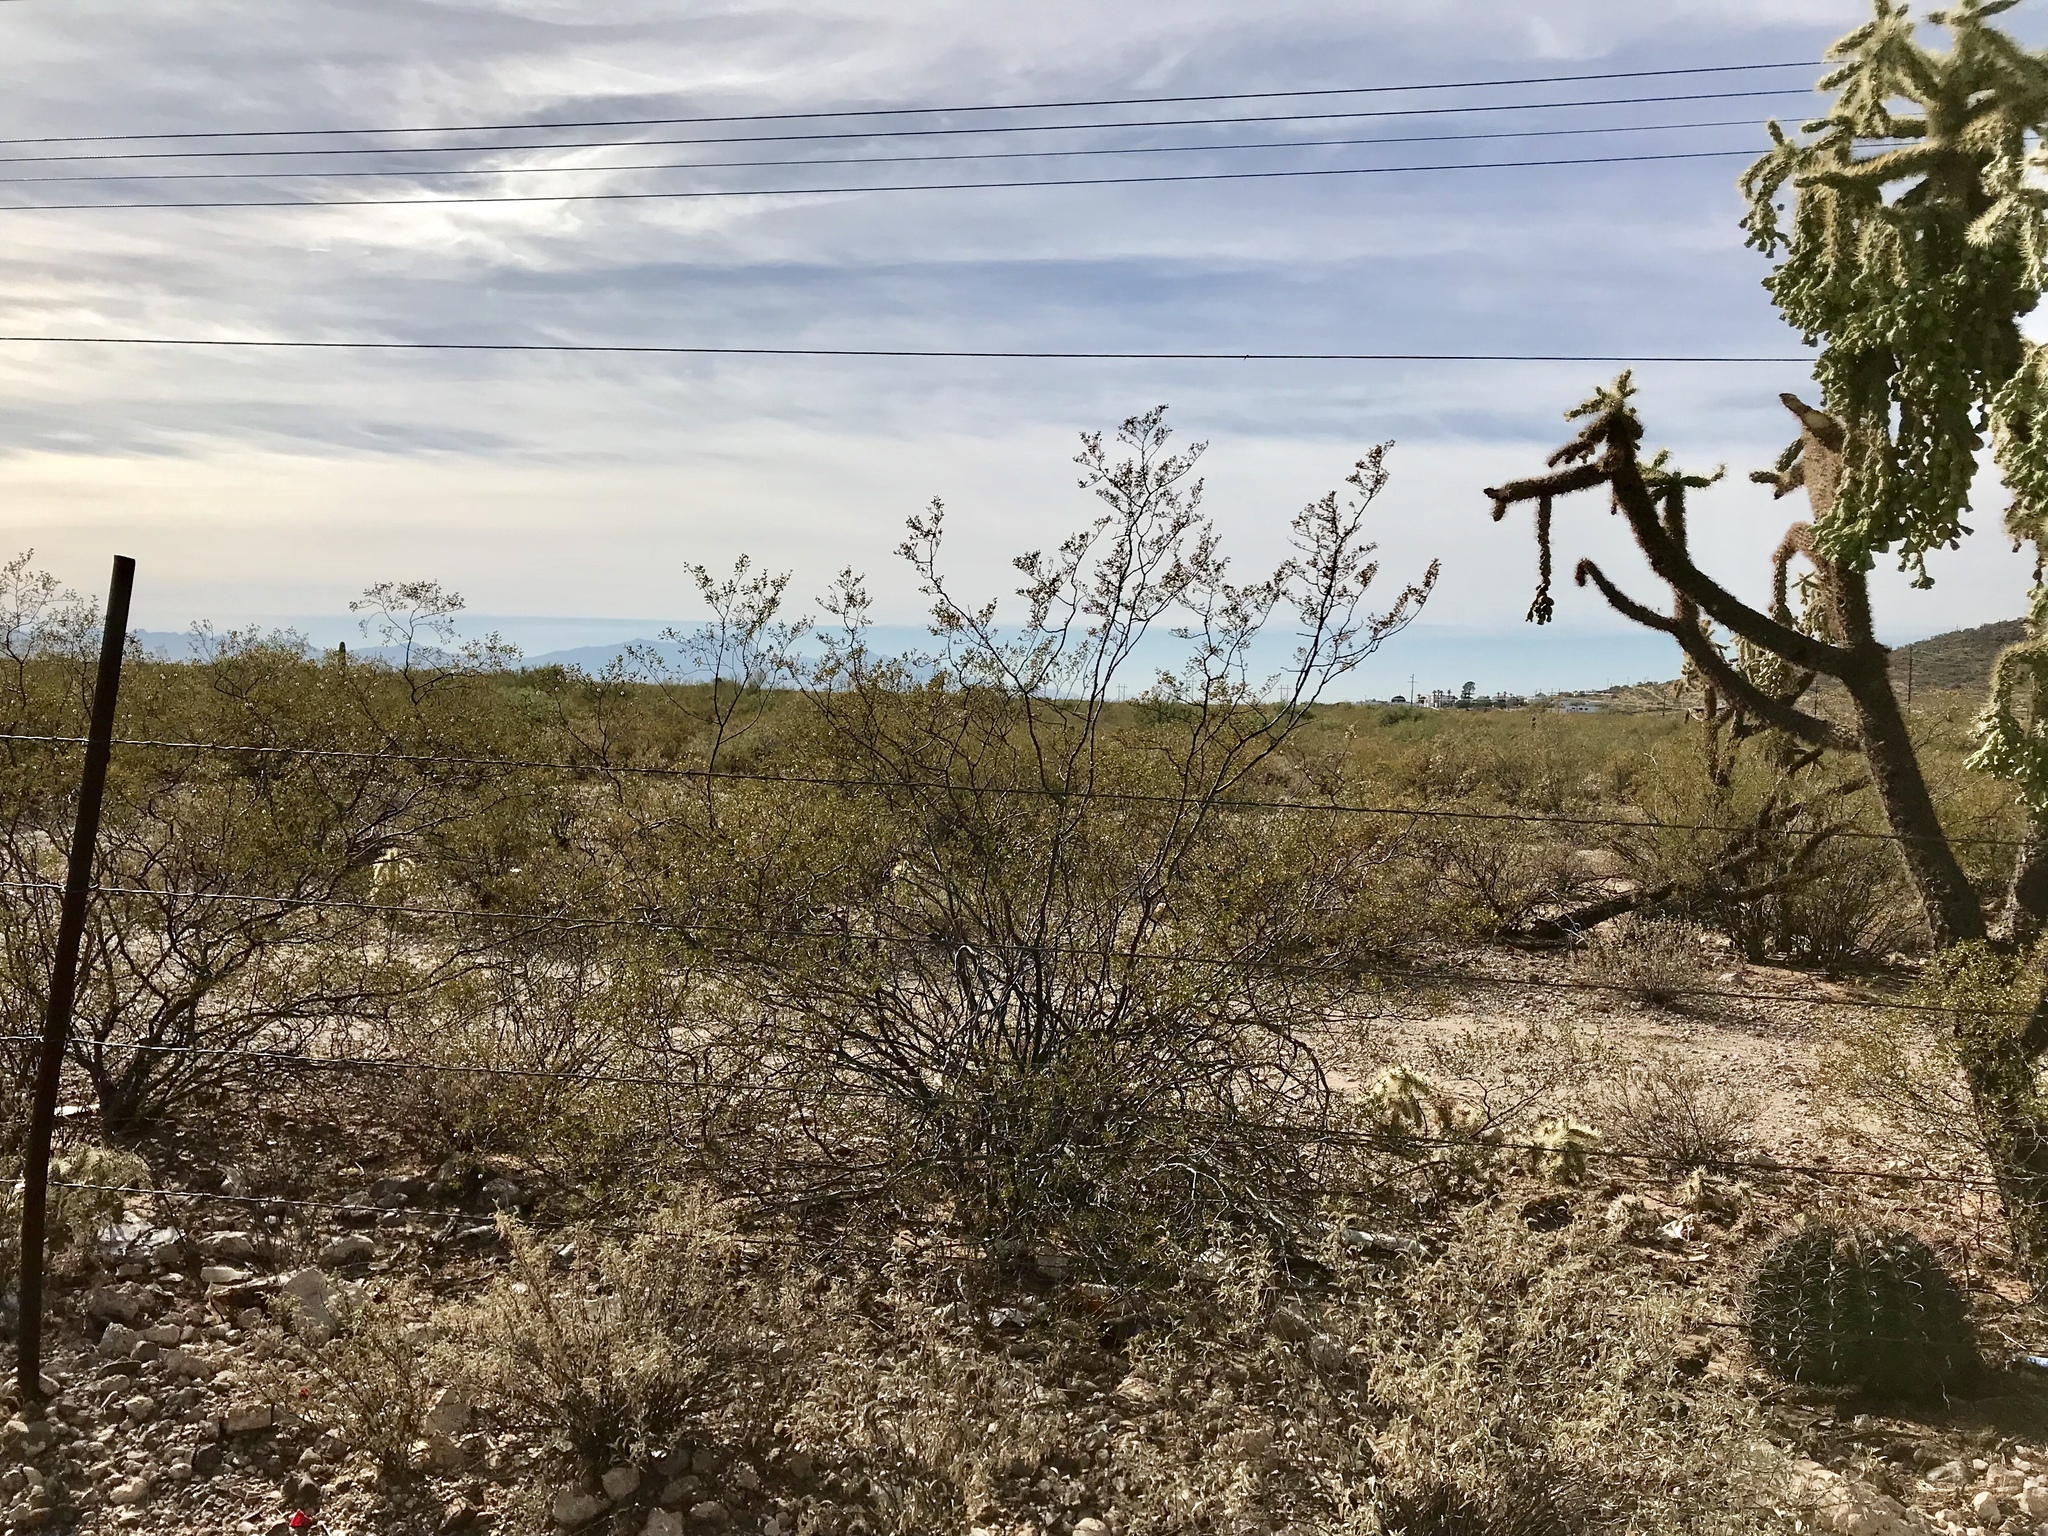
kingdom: Plantae
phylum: Tracheophyta
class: Magnoliopsida
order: Zygophyllales
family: Zygophyllaceae
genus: Larrea
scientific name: Larrea tridentata
